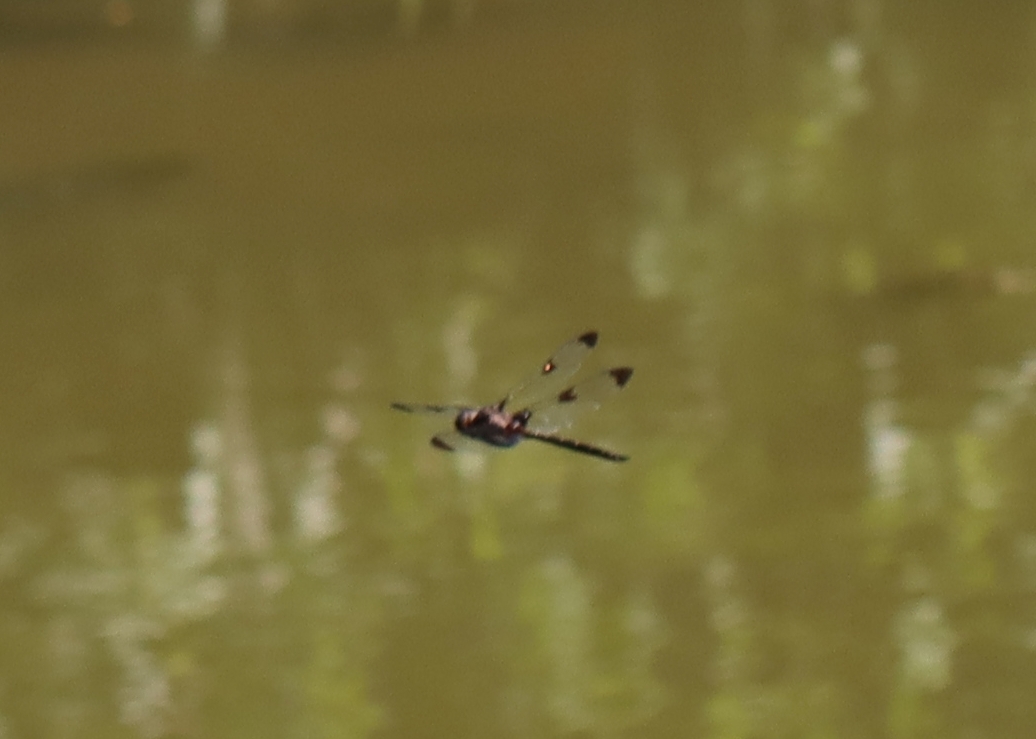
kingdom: Animalia
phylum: Arthropoda
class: Insecta
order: Odonata
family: Corduliidae
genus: Epitheca
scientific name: Epitheca princeps
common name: Prince baskettail
